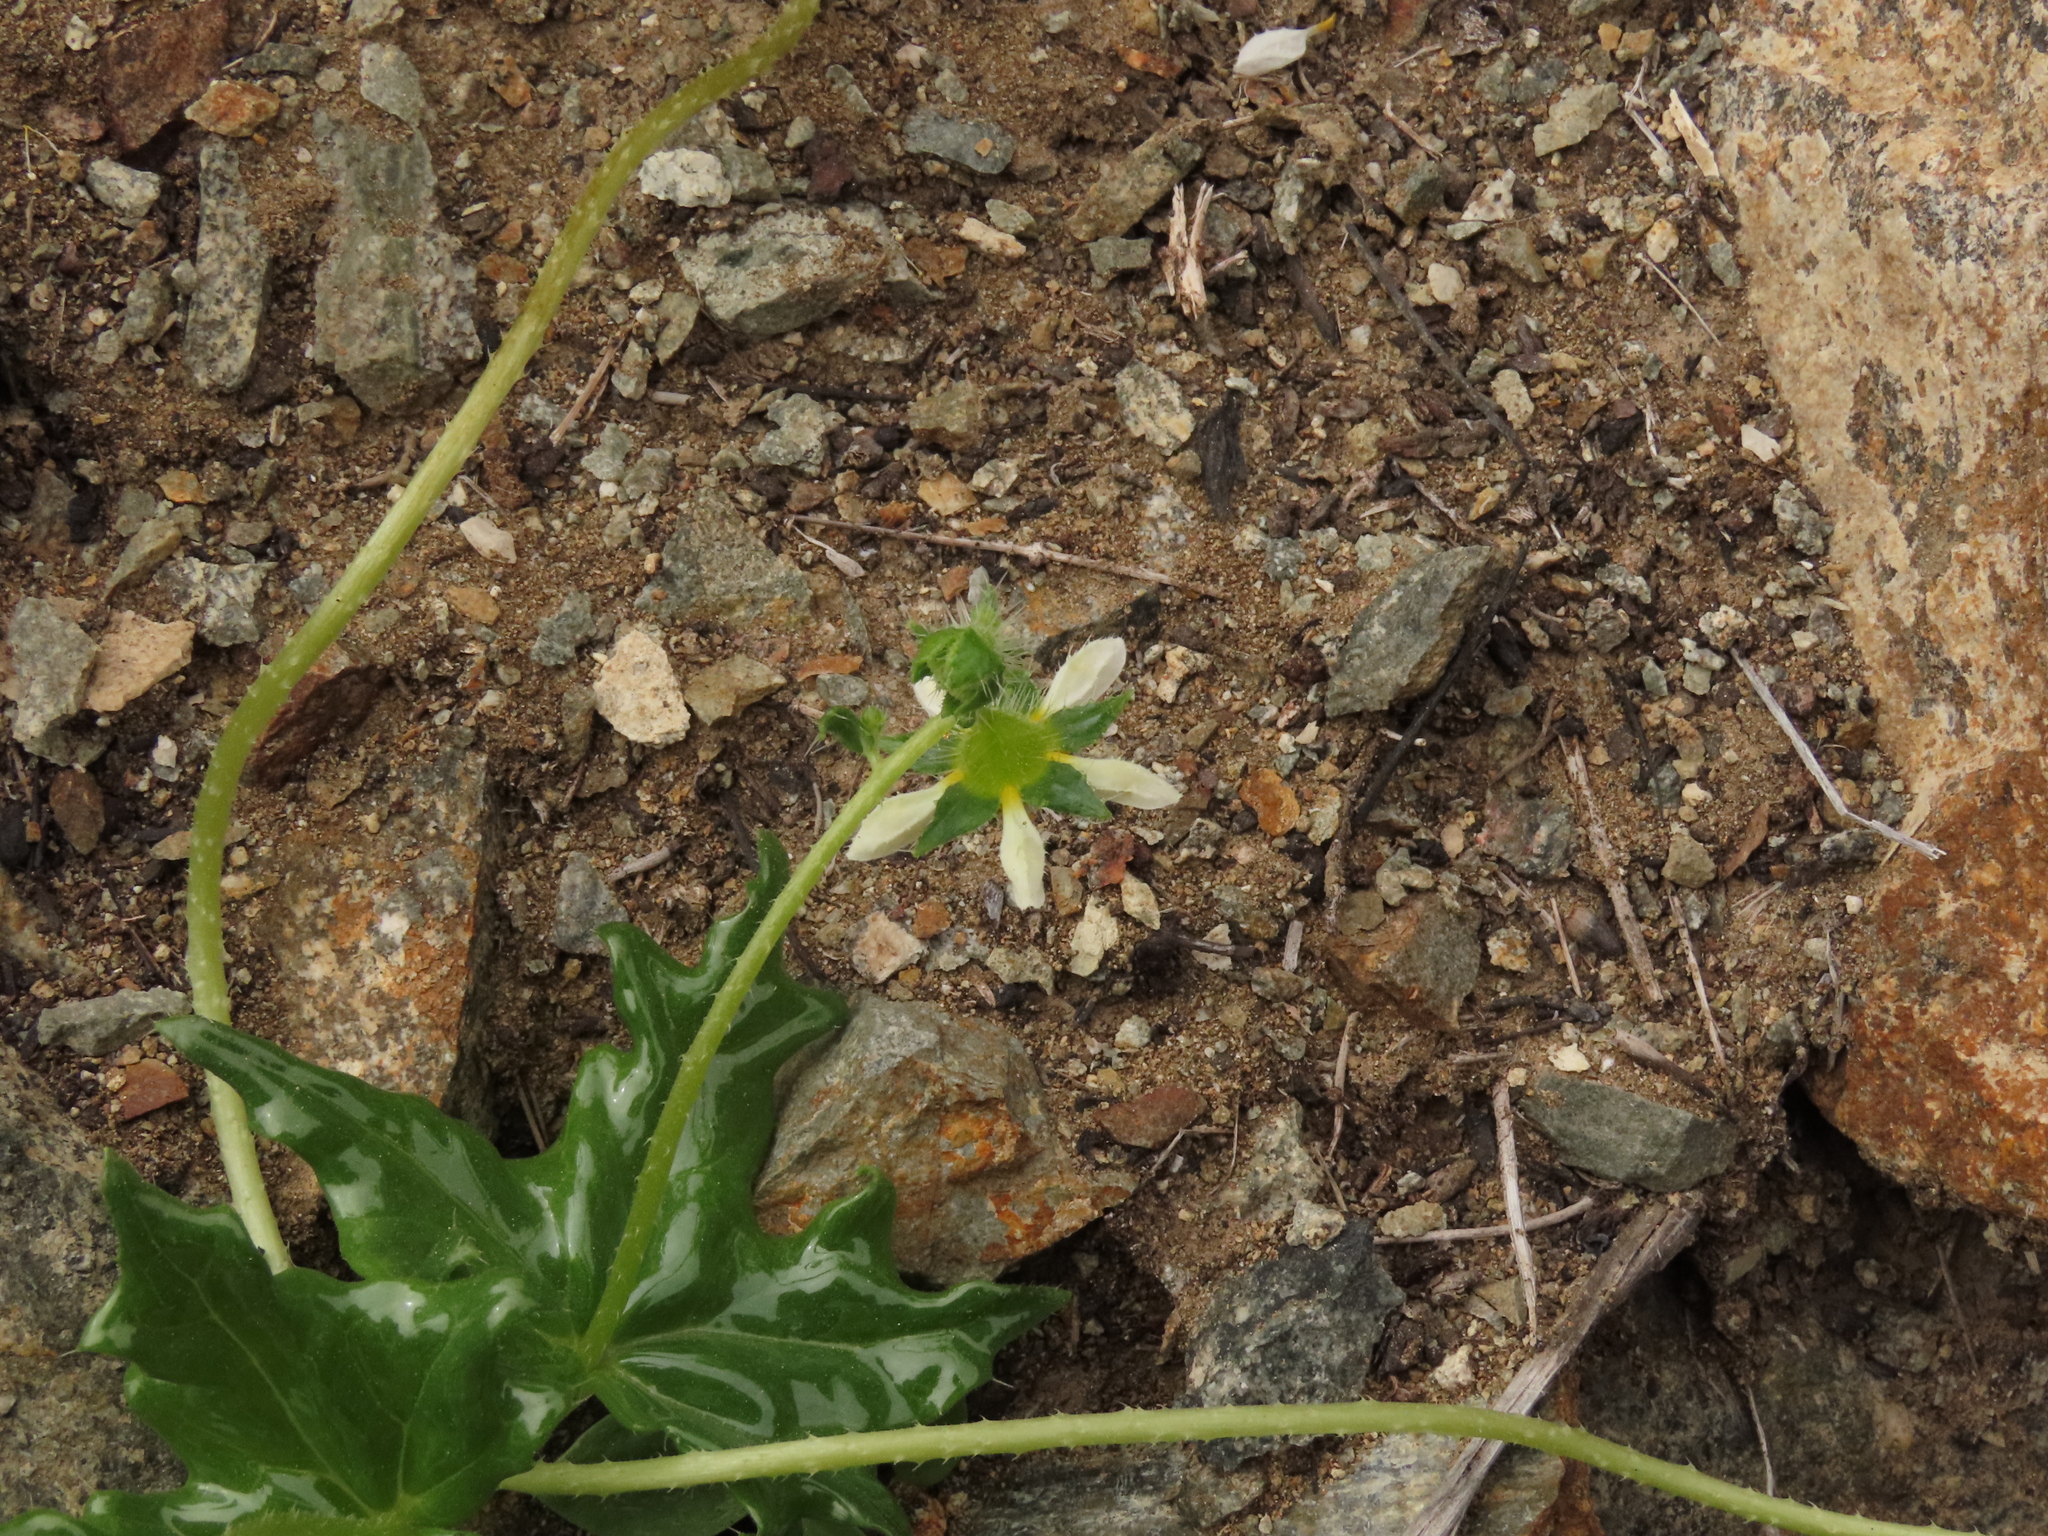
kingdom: Plantae
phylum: Tracheophyta
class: Magnoliopsida
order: Cornales
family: Loasaceae
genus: Loasa
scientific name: Loasa elongata
